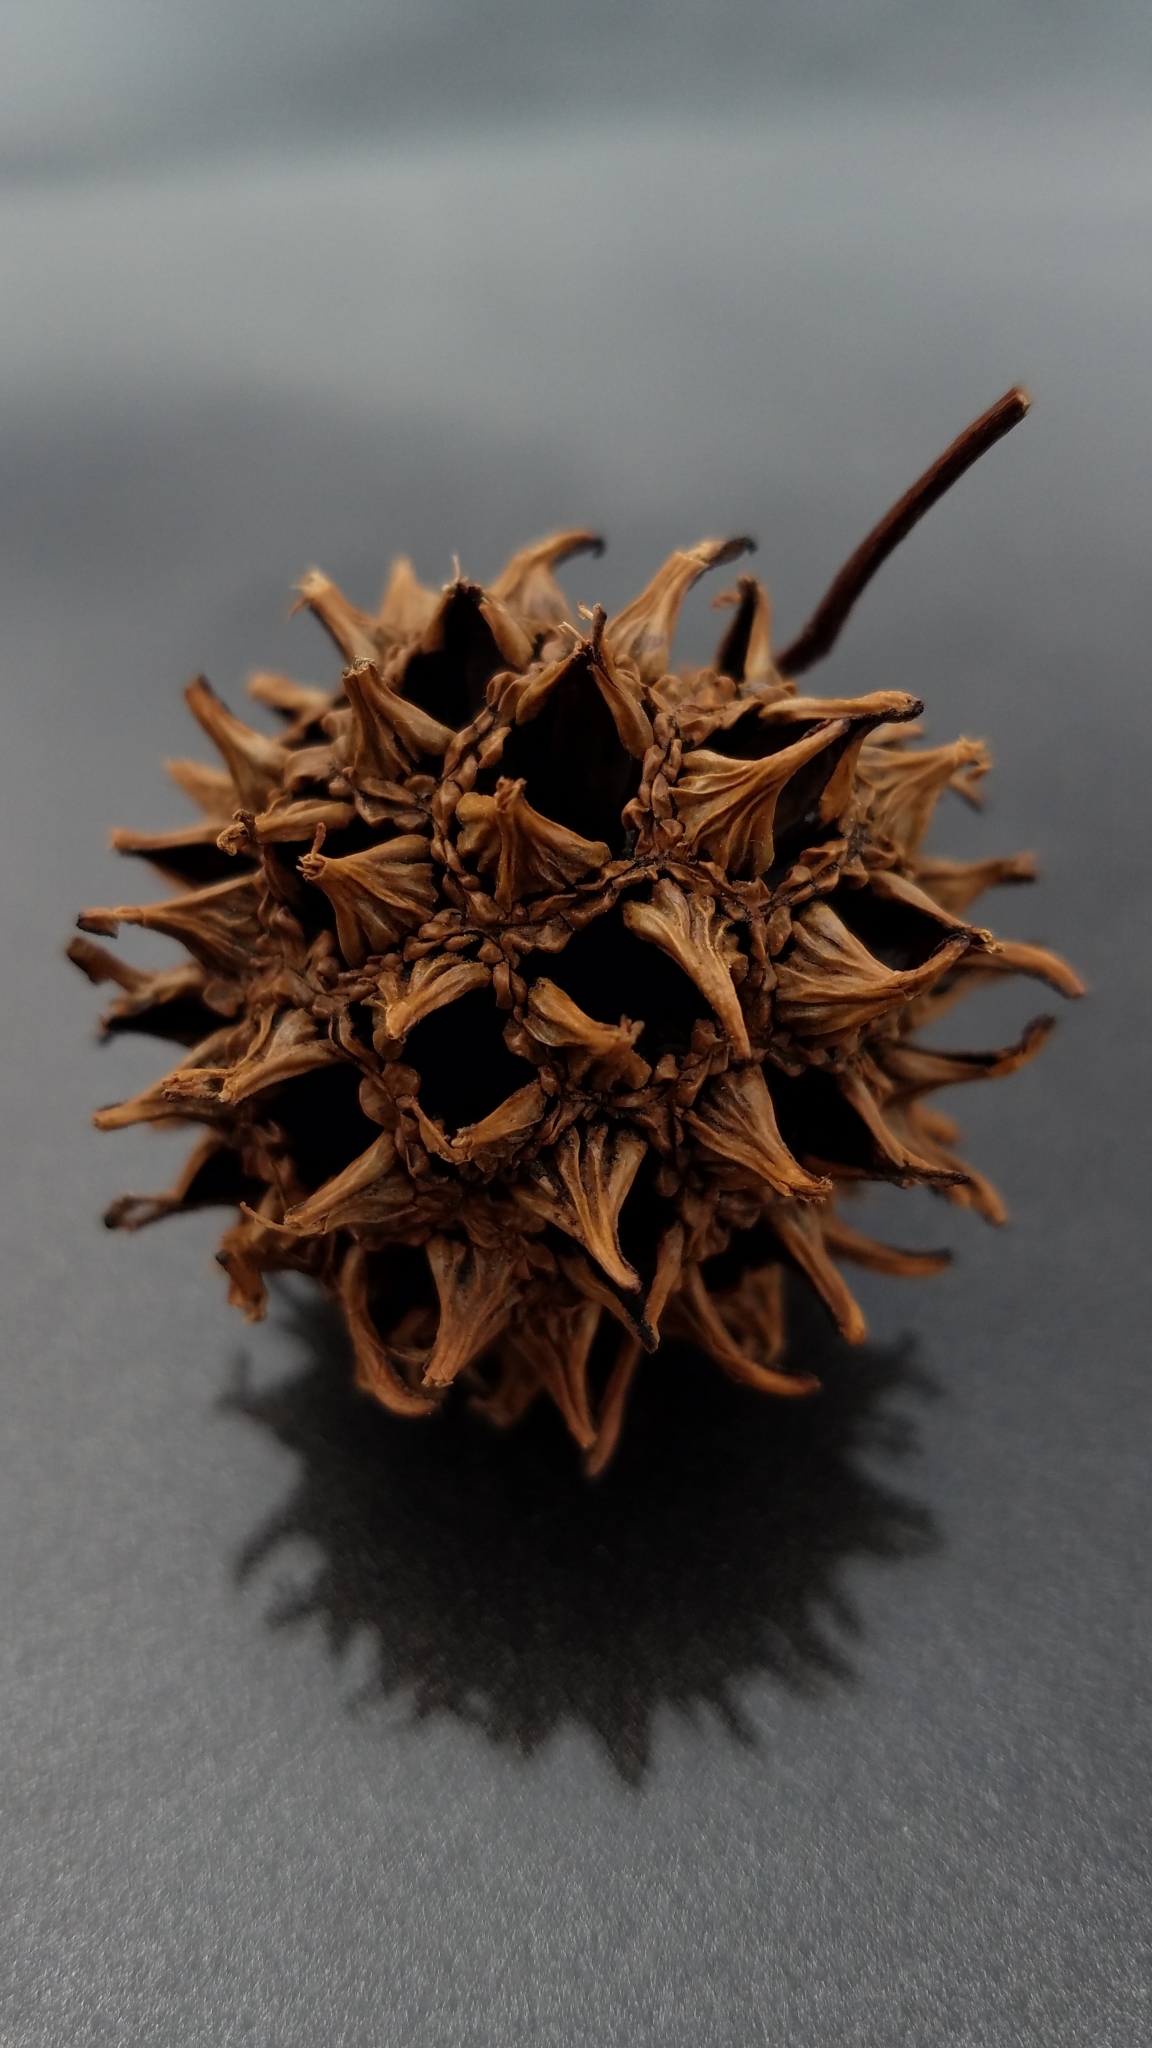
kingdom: Plantae
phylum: Tracheophyta
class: Magnoliopsida
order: Saxifragales
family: Altingiaceae
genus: Liquidambar
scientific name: Liquidambar styraciflua
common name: Sweet gum
